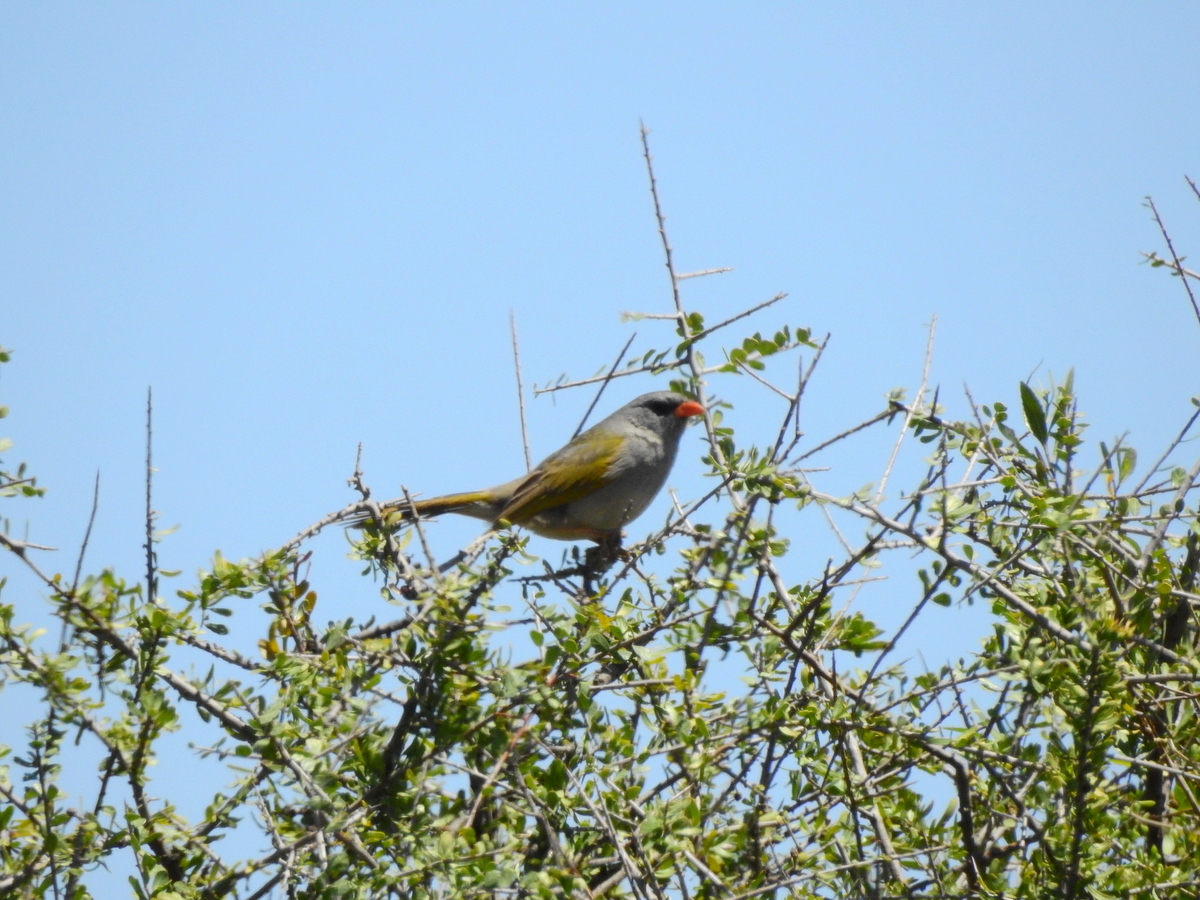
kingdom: Animalia
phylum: Chordata
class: Aves
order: Passeriformes
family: Thraupidae
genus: Embernagra
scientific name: Embernagra platensis
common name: Pampa finch
